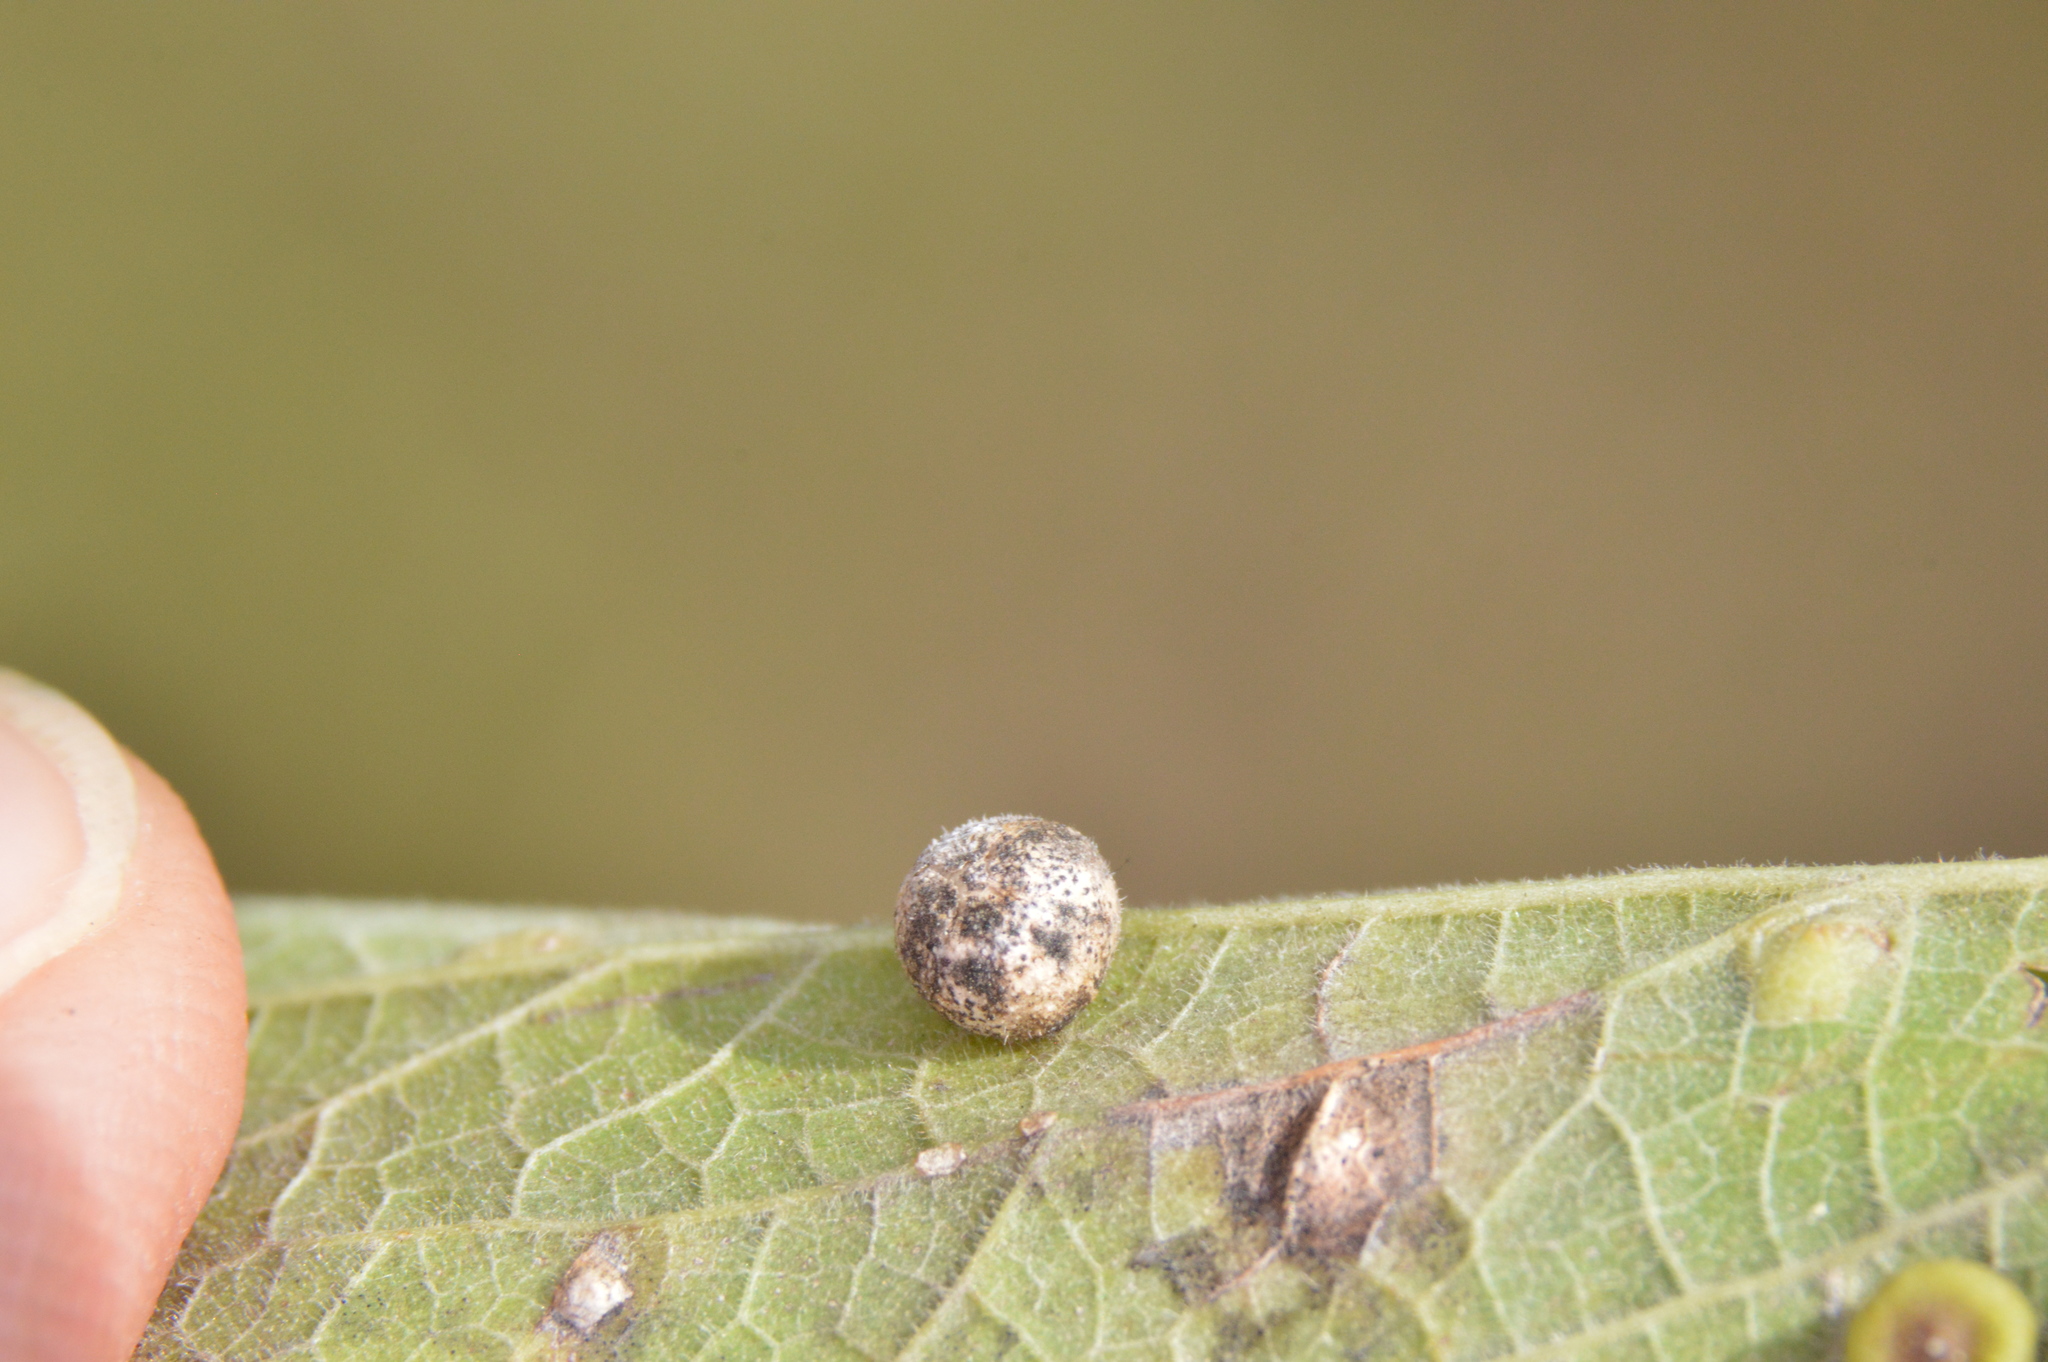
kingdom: Animalia
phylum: Arthropoda
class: Insecta
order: Diptera
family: Cecidomyiidae
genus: Celticecis
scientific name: Celticecis pubescens
